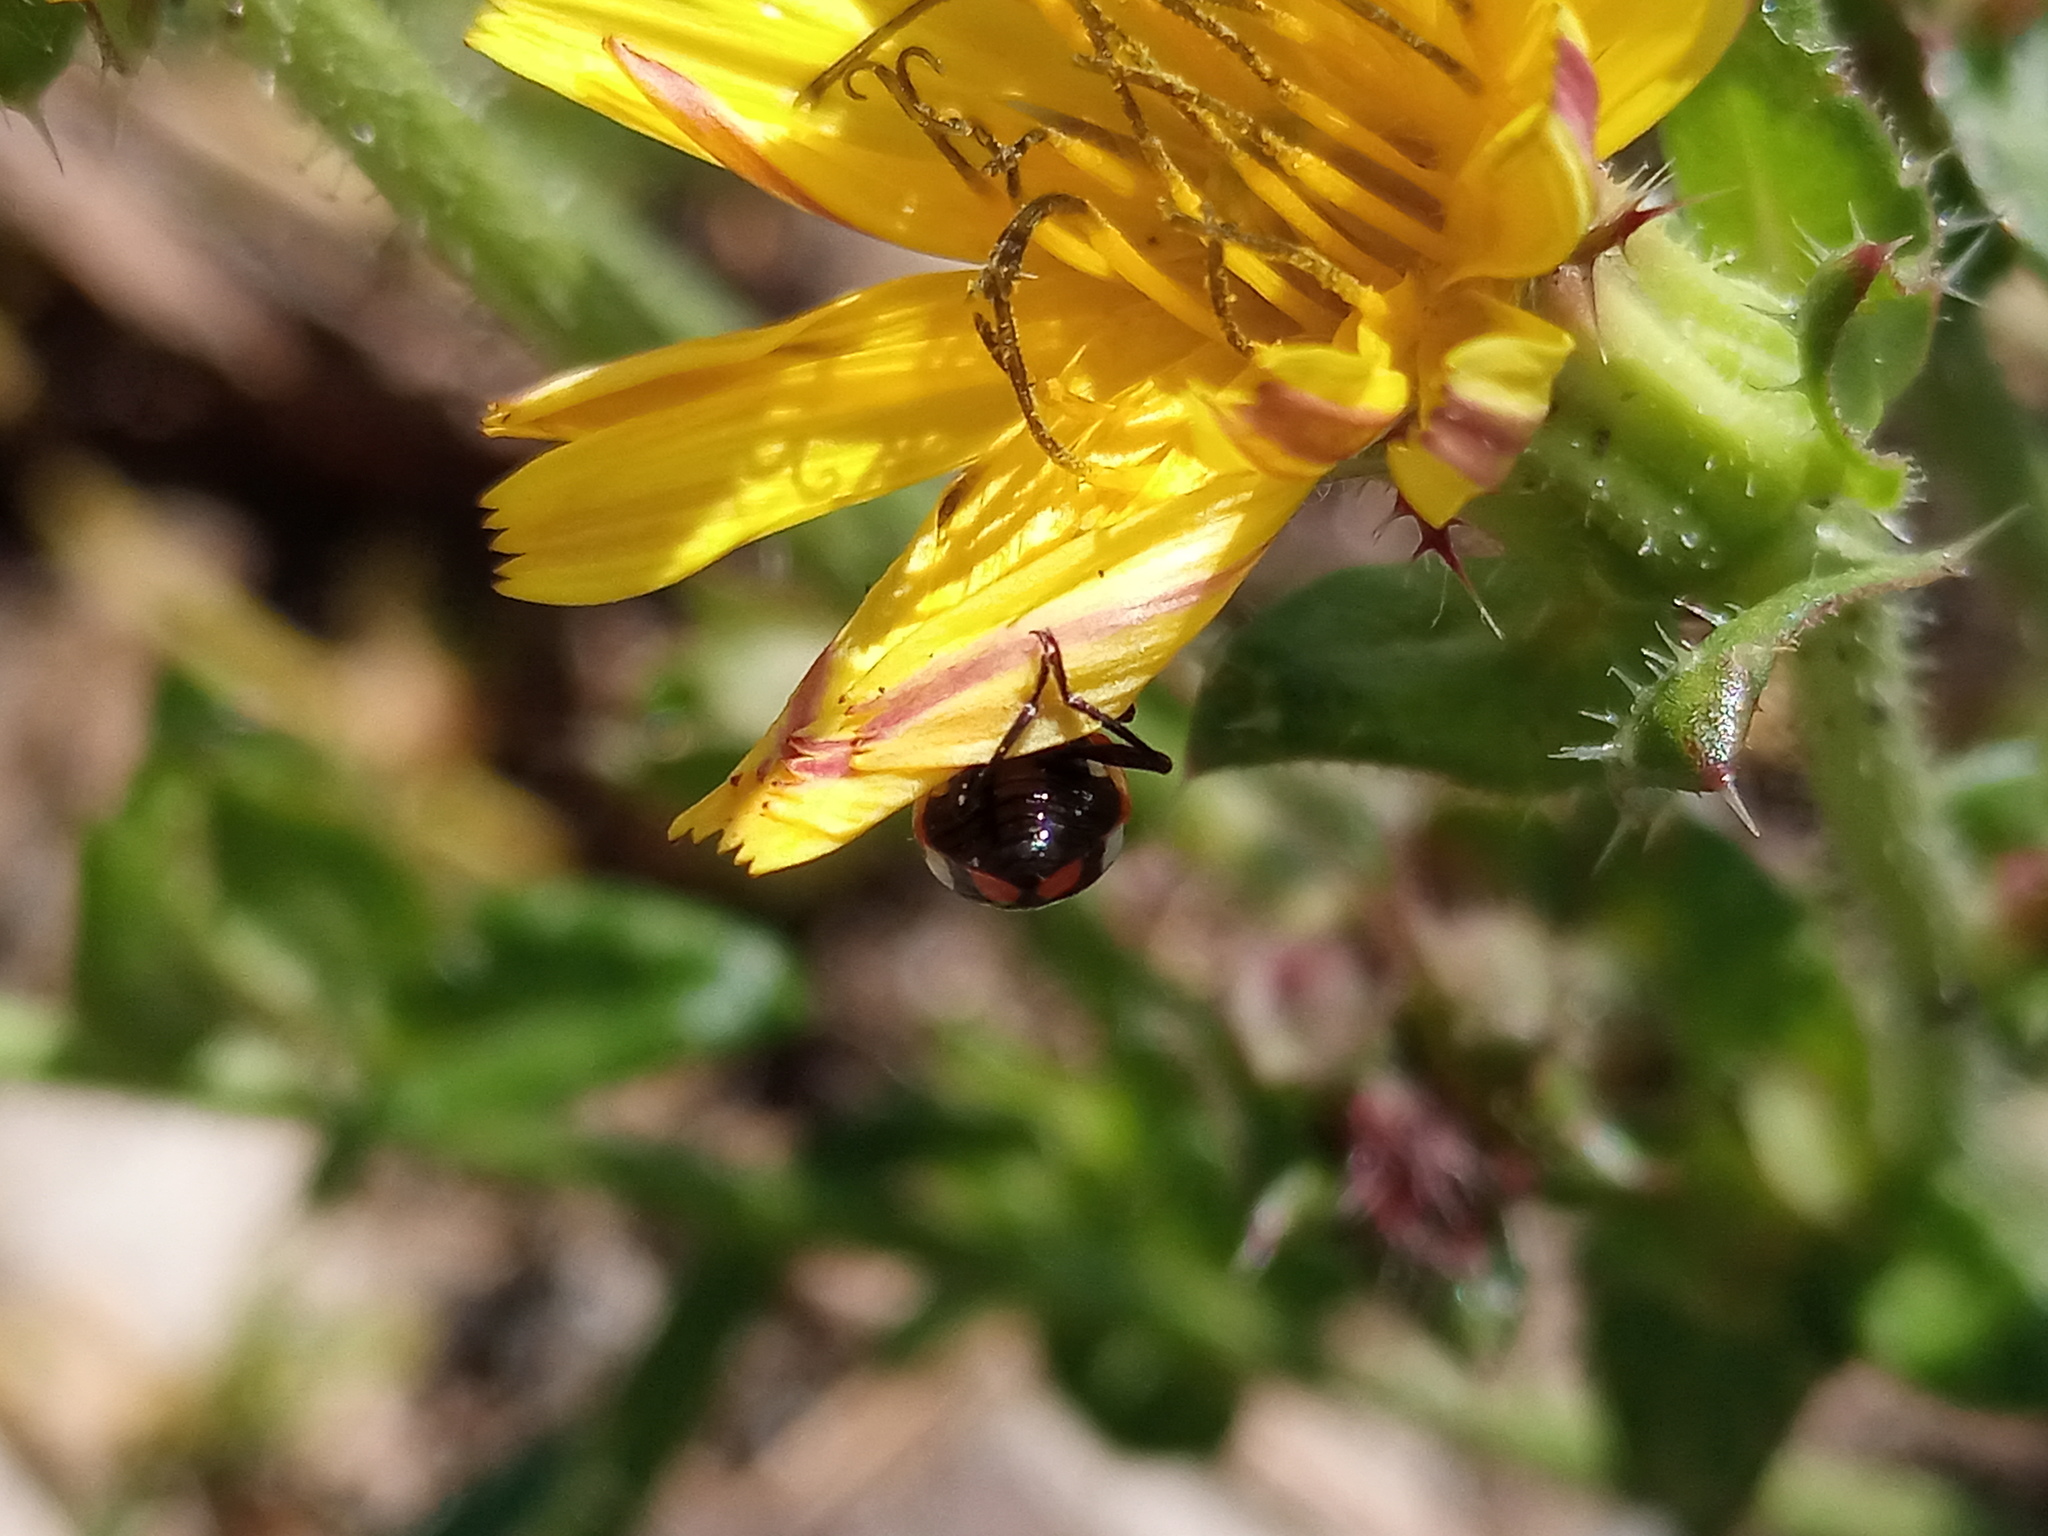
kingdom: Animalia
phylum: Arthropoda
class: Insecta
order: Coleoptera
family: Coccinellidae
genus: Eriopis
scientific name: Eriopis connexa
